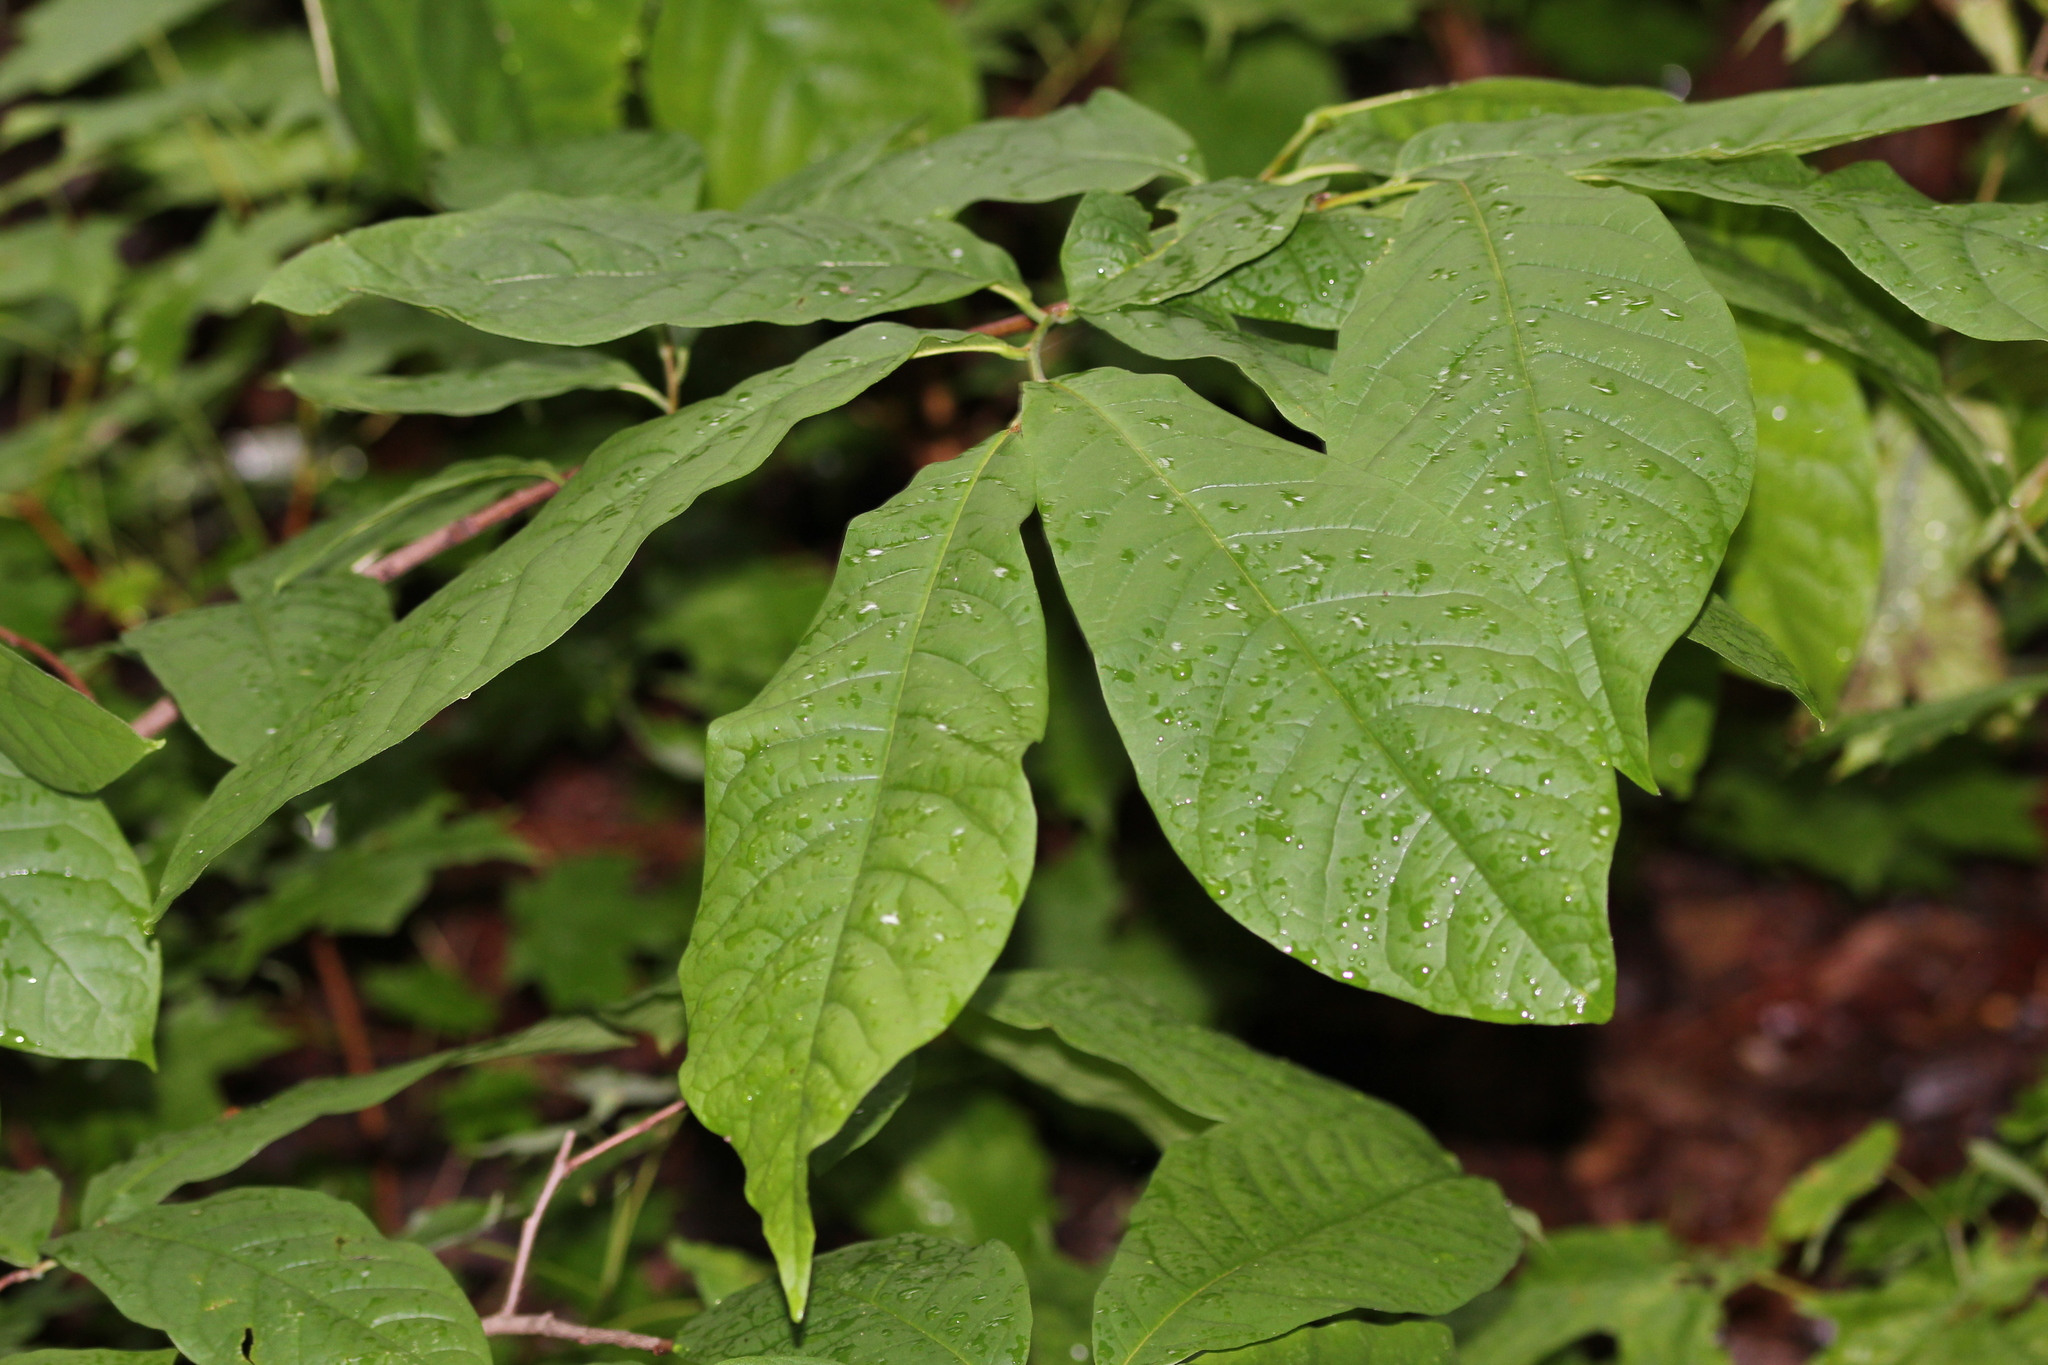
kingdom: Plantae
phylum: Tracheophyta
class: Magnoliopsida
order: Magnoliales
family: Annonaceae
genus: Asimina
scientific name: Asimina triloba
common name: Dog-banana
